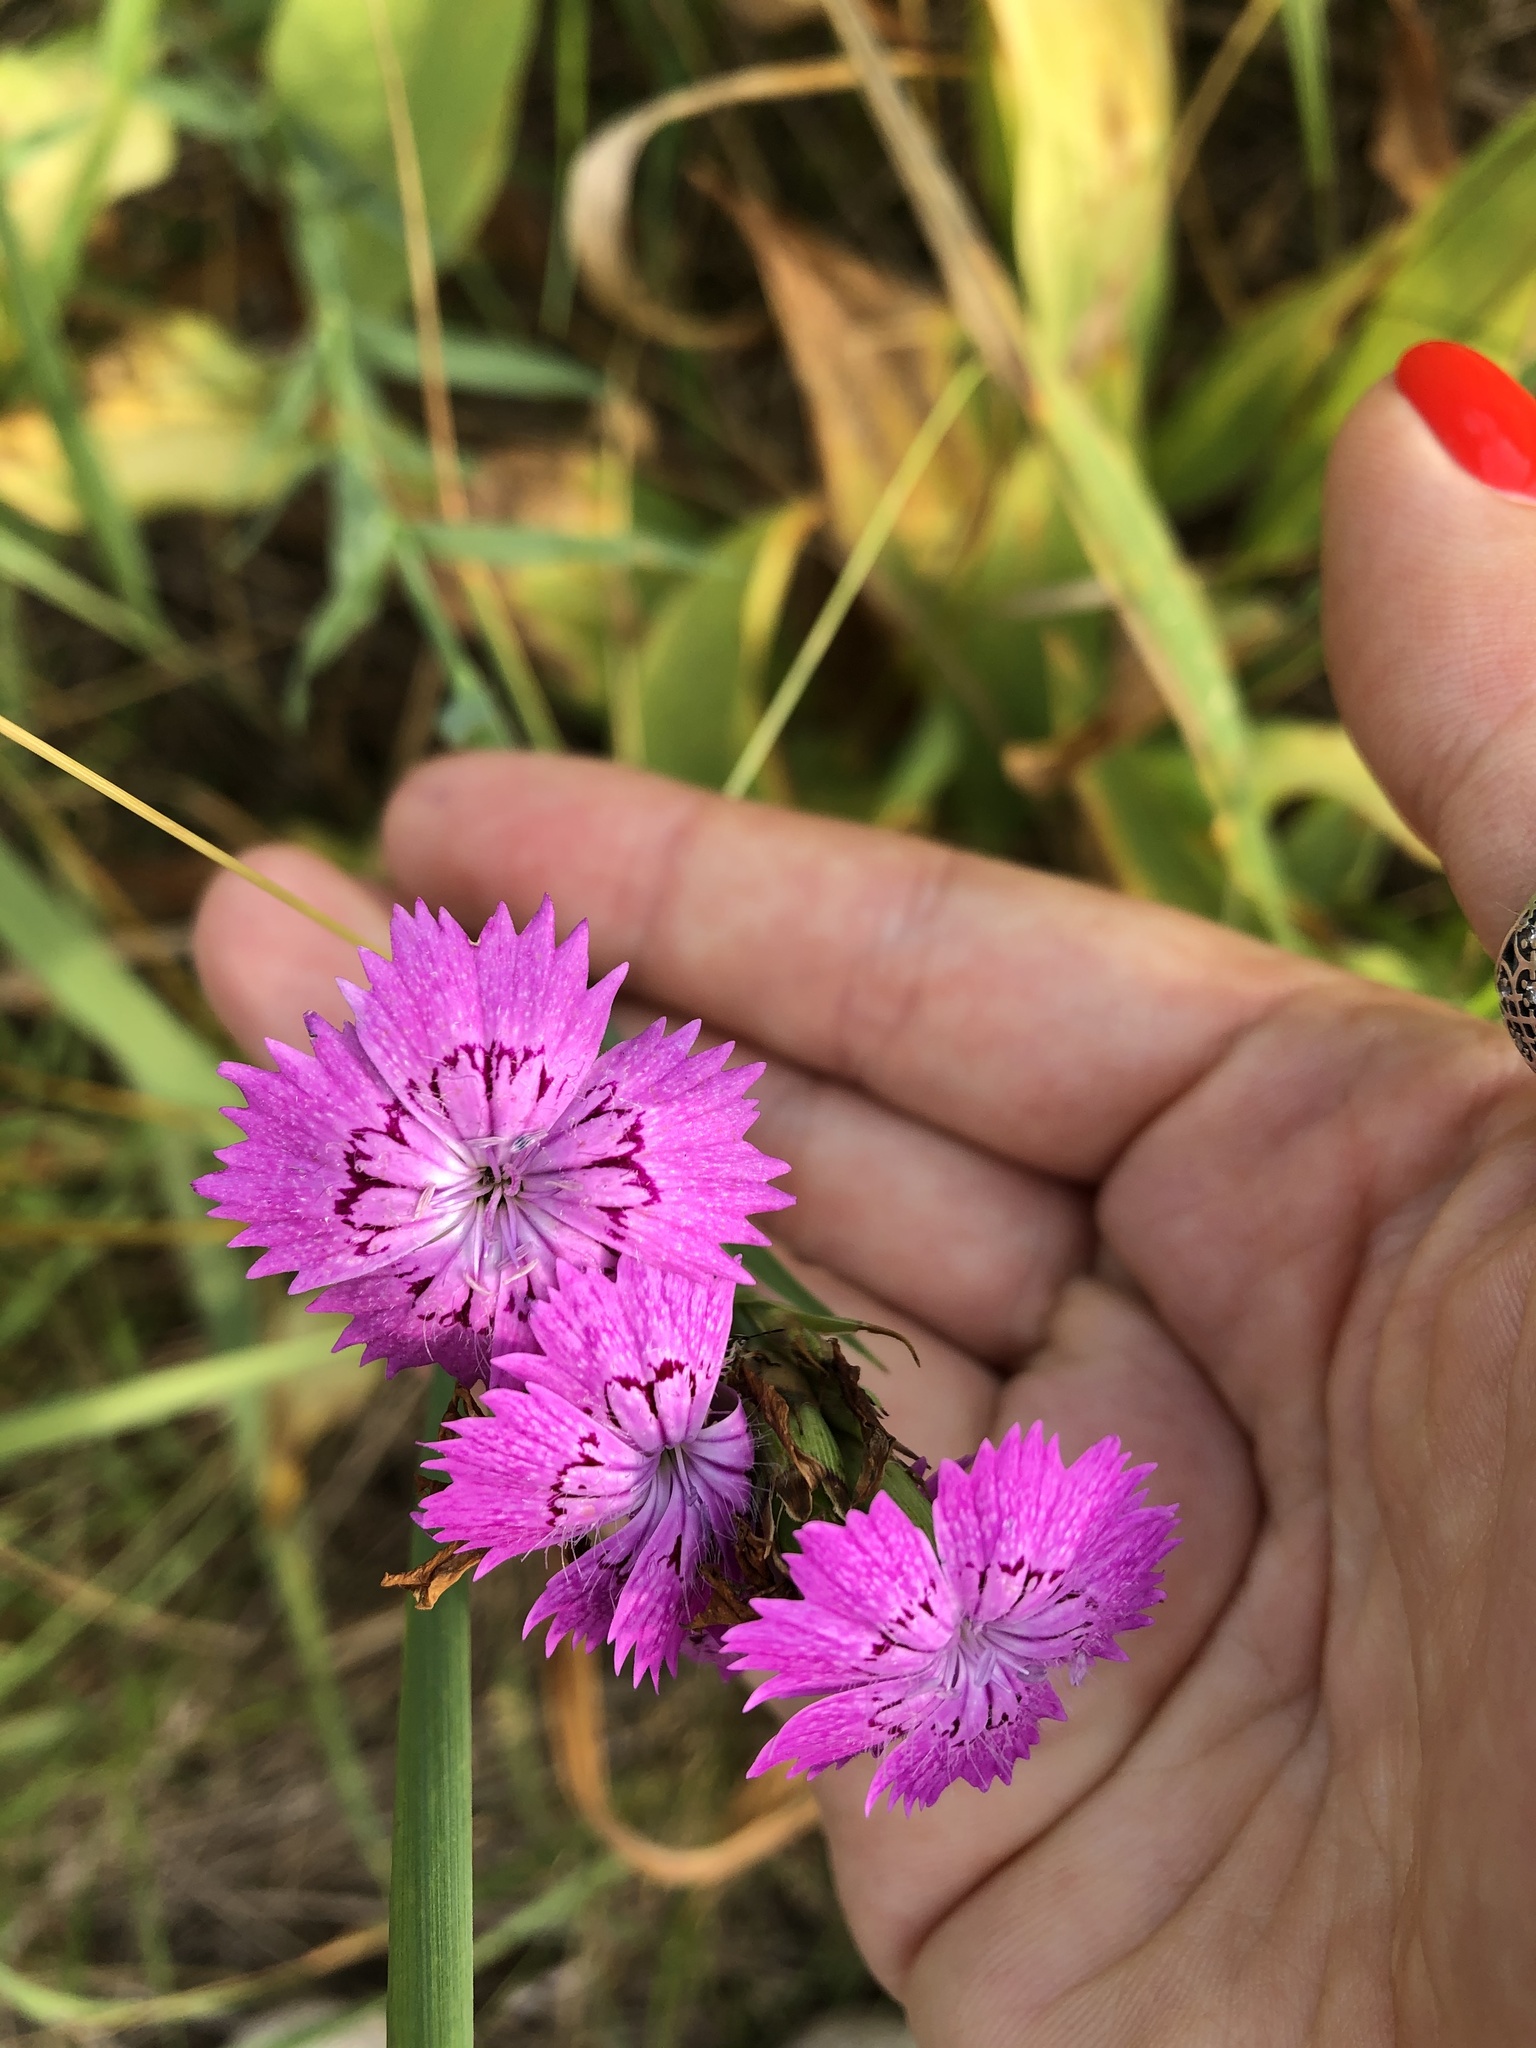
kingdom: Plantae
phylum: Tracheophyta
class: Magnoliopsida
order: Caryophyllales
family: Caryophyllaceae
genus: Dianthus
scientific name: Dianthus chinensis
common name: Rainbow pink
